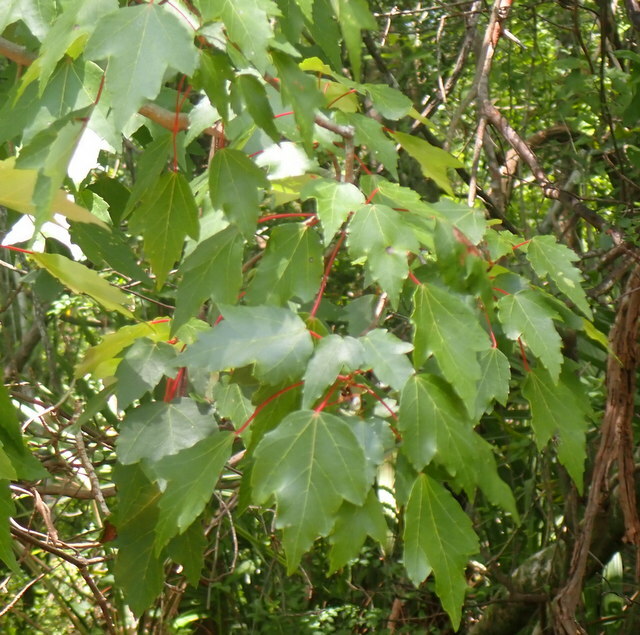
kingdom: Plantae
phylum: Tracheophyta
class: Magnoliopsida
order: Sapindales
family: Sapindaceae
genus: Acer
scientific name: Acer rubrum
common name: Red maple
